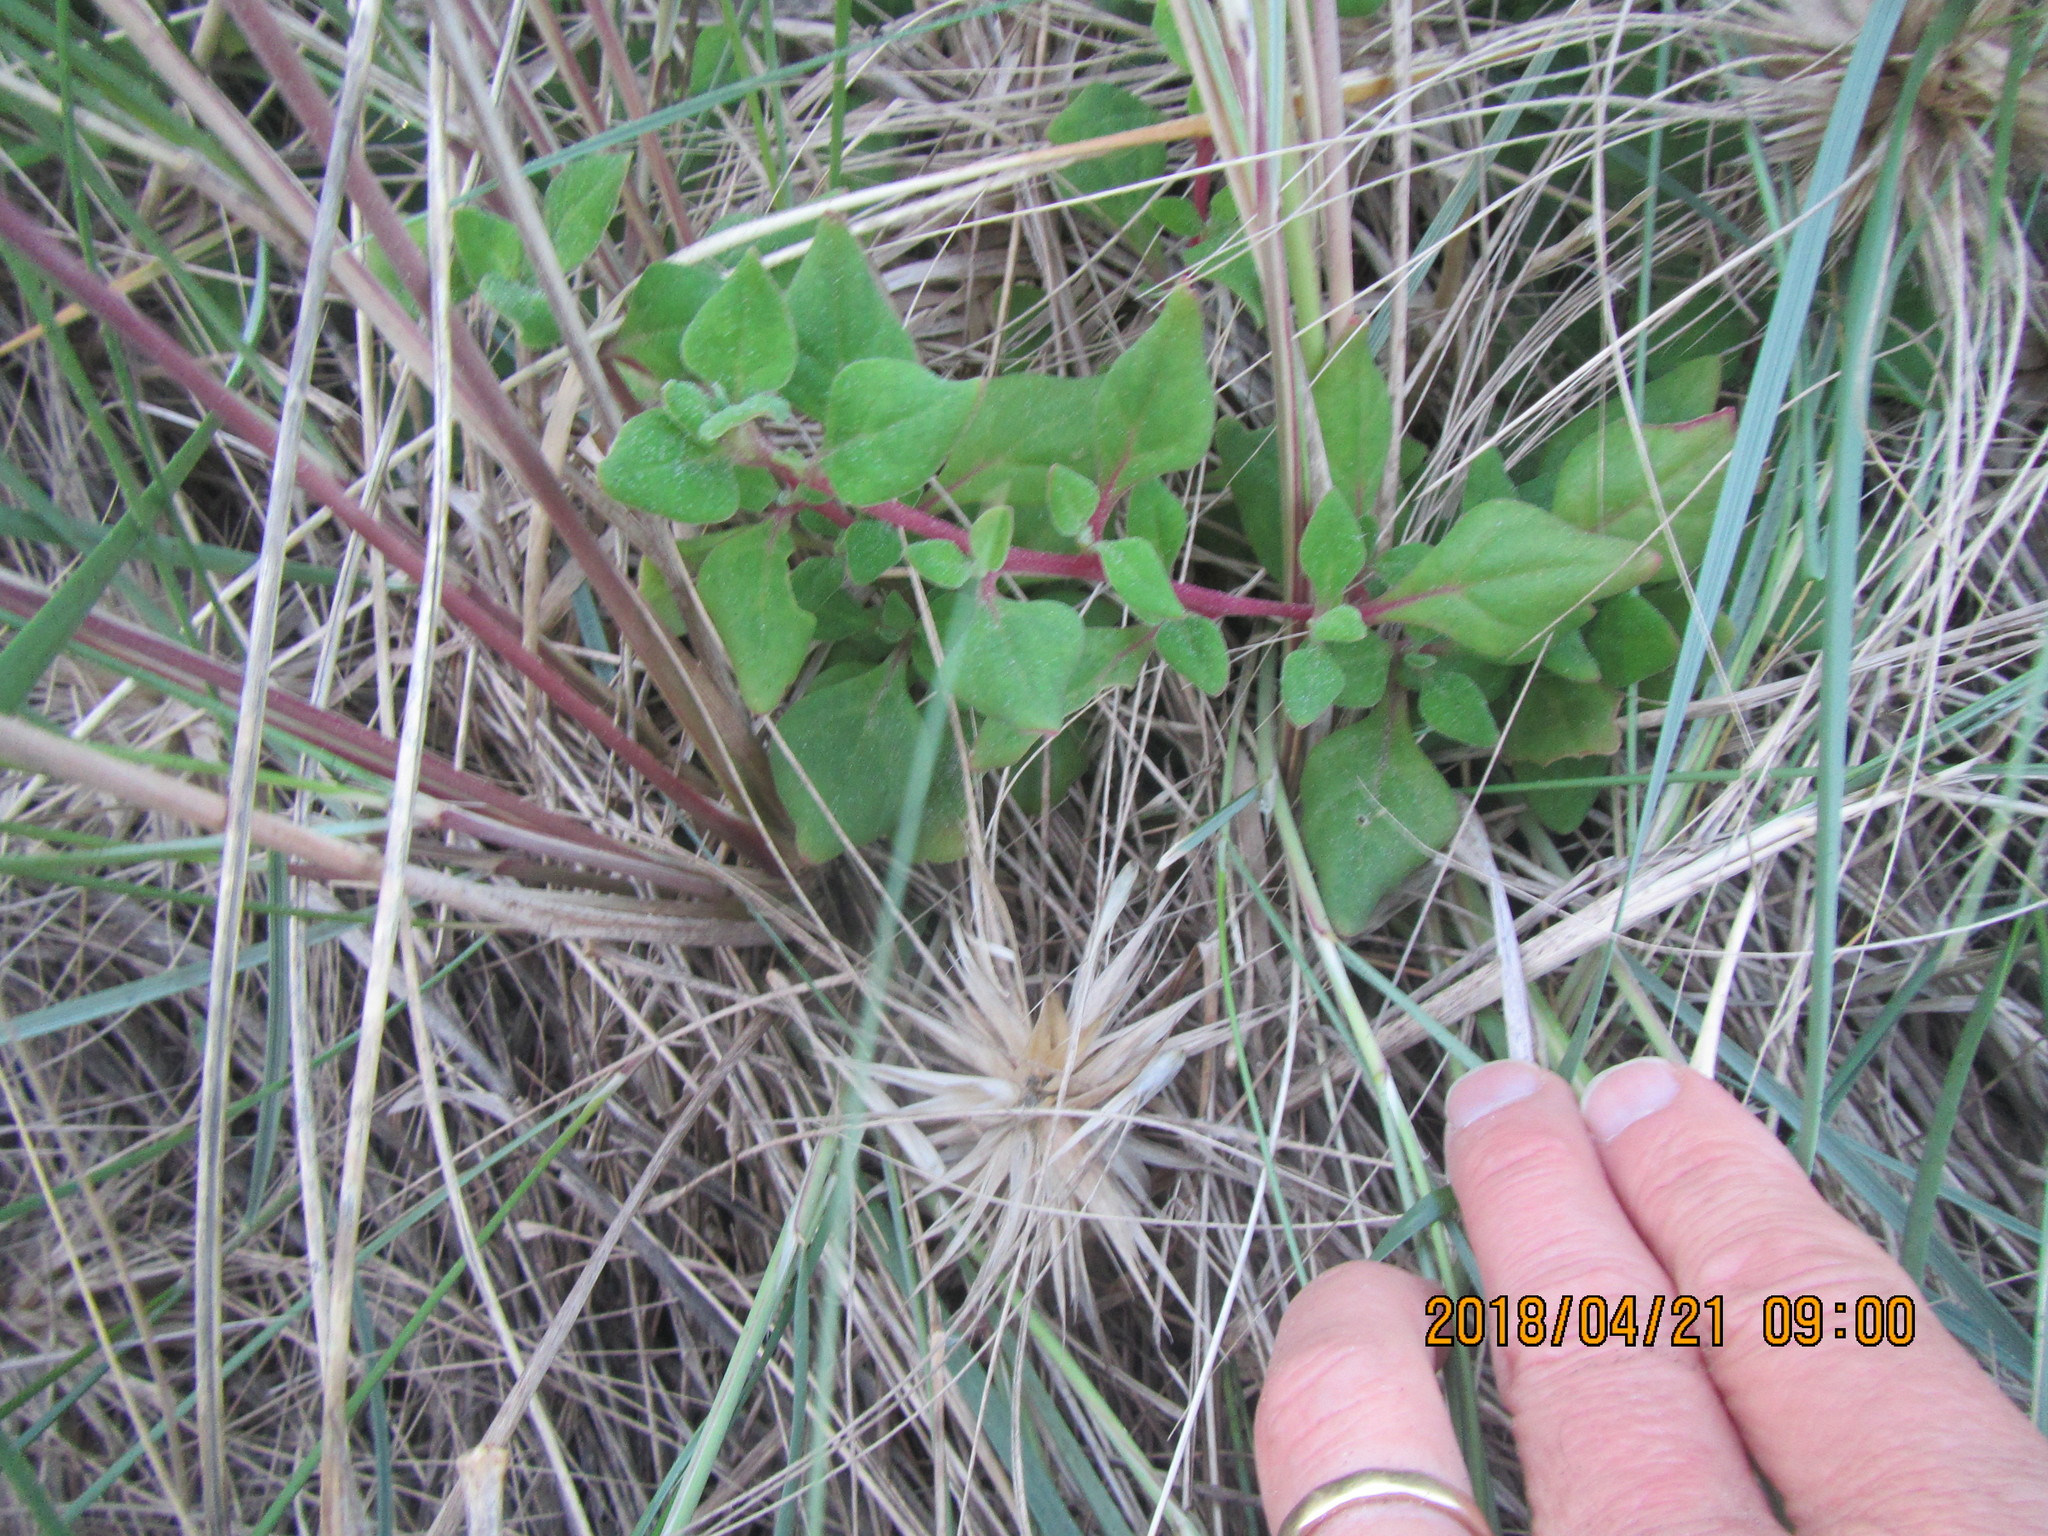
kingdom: Plantae
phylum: Tracheophyta
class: Magnoliopsida
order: Caryophyllales
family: Aizoaceae
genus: Tetragonia
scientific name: Tetragonia implexicoma
